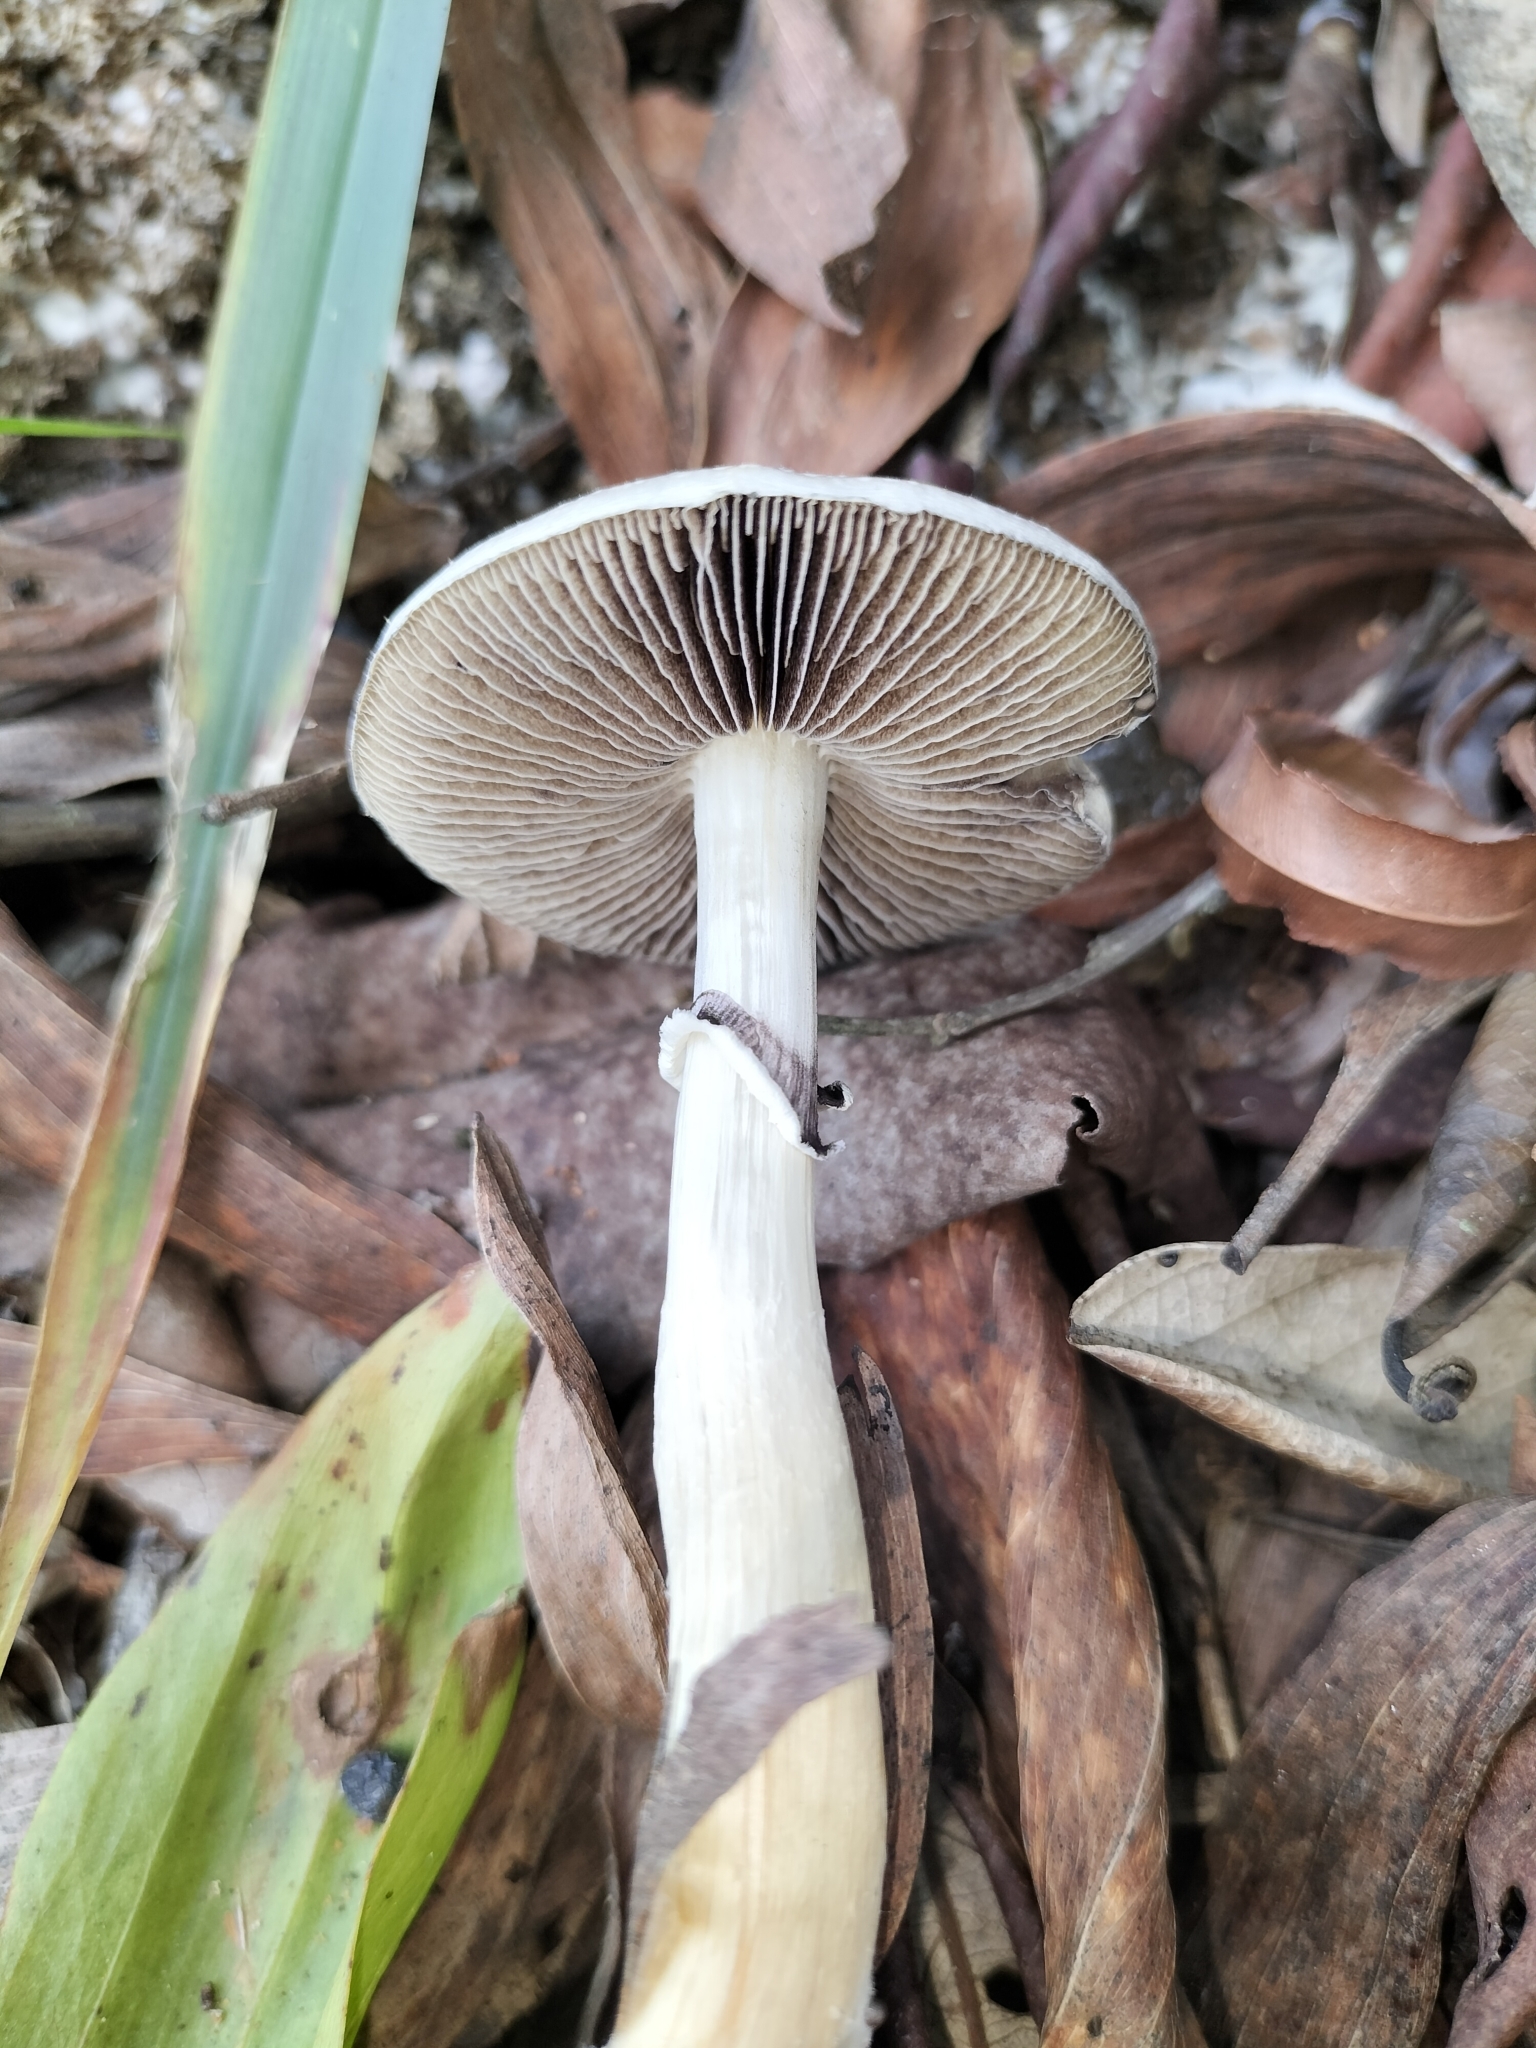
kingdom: Fungi
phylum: Basidiomycota
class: Agaricomycetes
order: Agaricales
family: Hymenogastraceae
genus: Psilocybe
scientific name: Psilocybe cubensis
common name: Golden brownie
